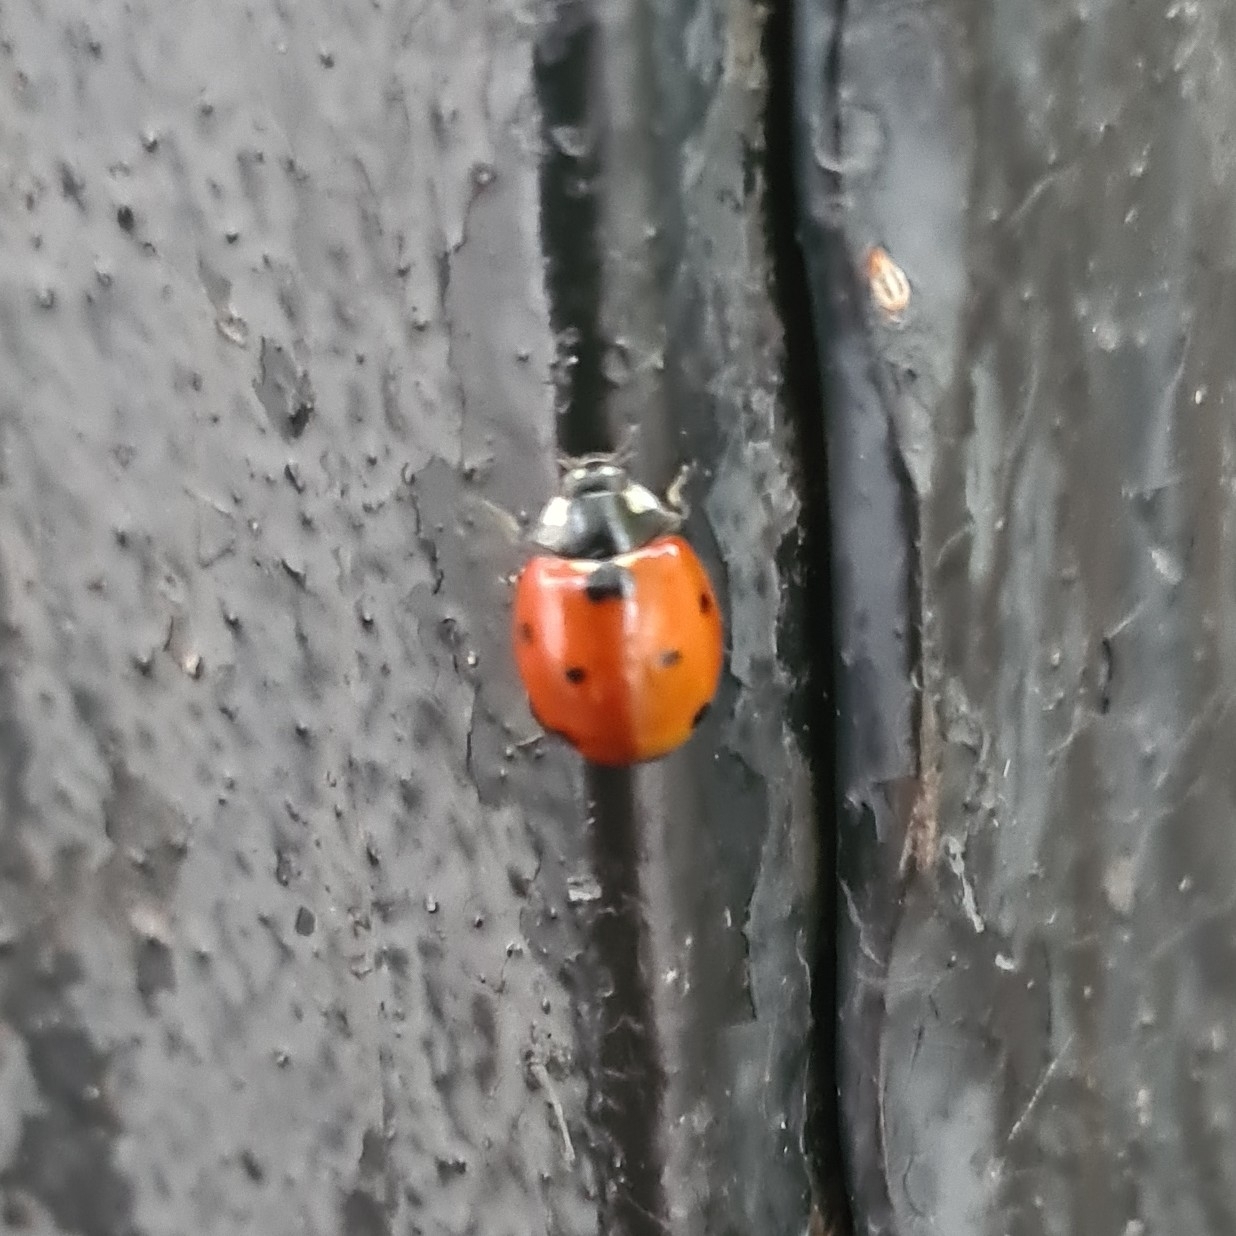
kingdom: Animalia
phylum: Arthropoda
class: Insecta
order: Coleoptera
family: Coccinellidae
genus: Coccinella
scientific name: Coccinella septempunctata
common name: Sevenspotted lady beetle
